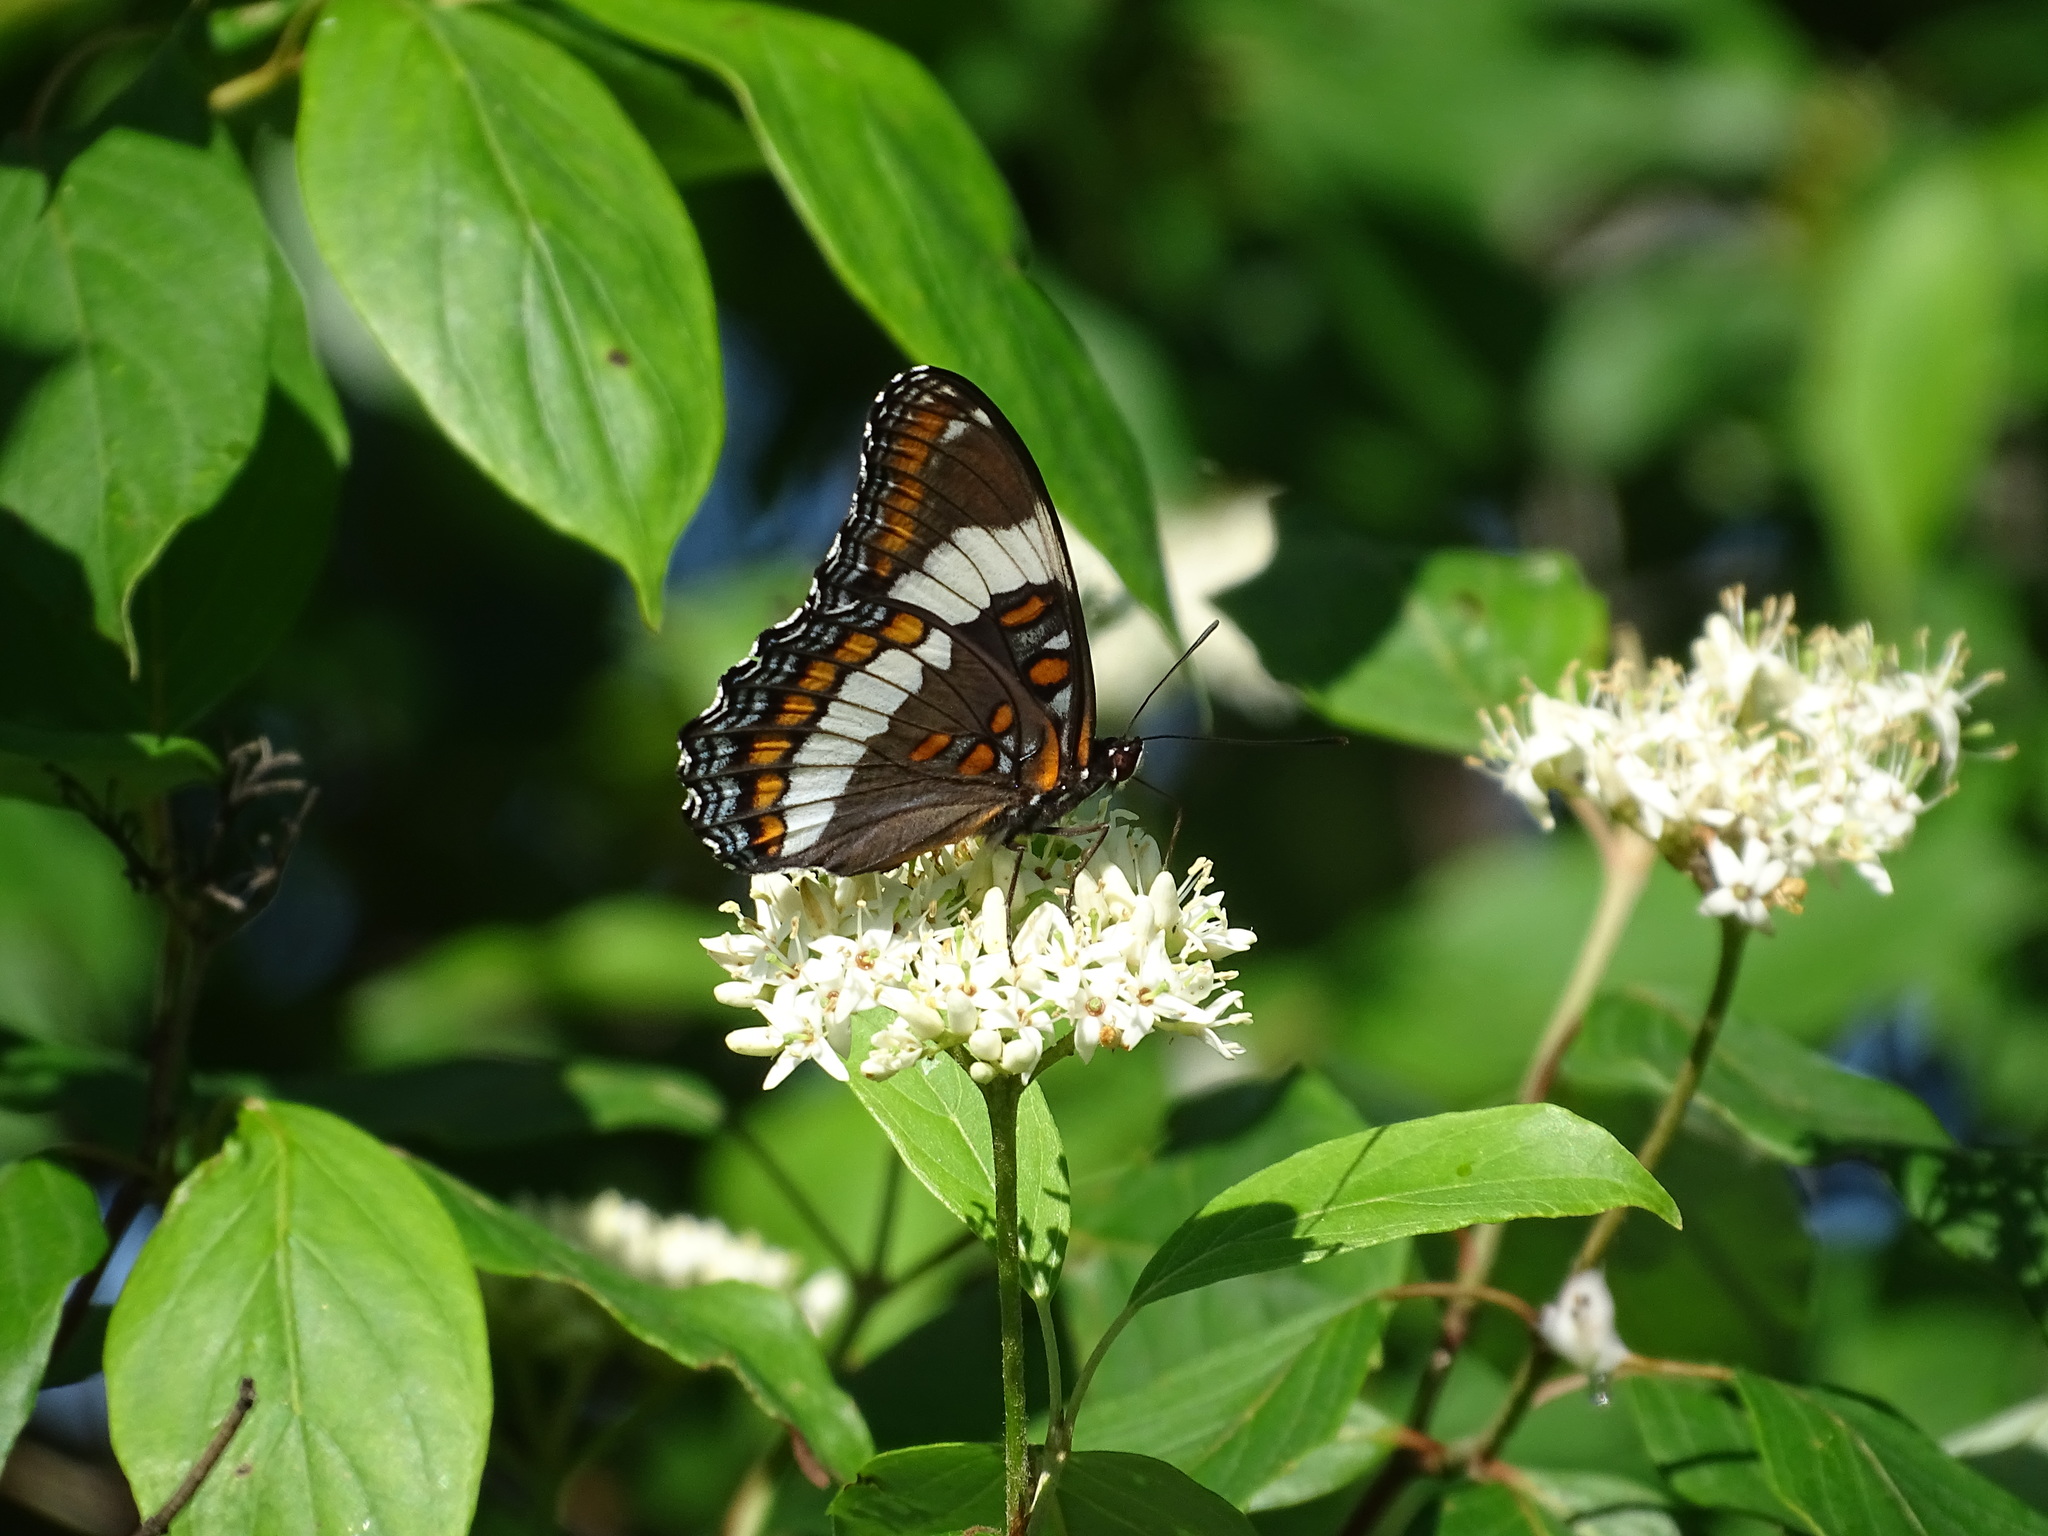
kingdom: Animalia
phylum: Arthropoda
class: Insecta
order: Lepidoptera
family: Nymphalidae
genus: Limenitis
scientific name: Limenitis arthemis
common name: Red-spotted admiral
